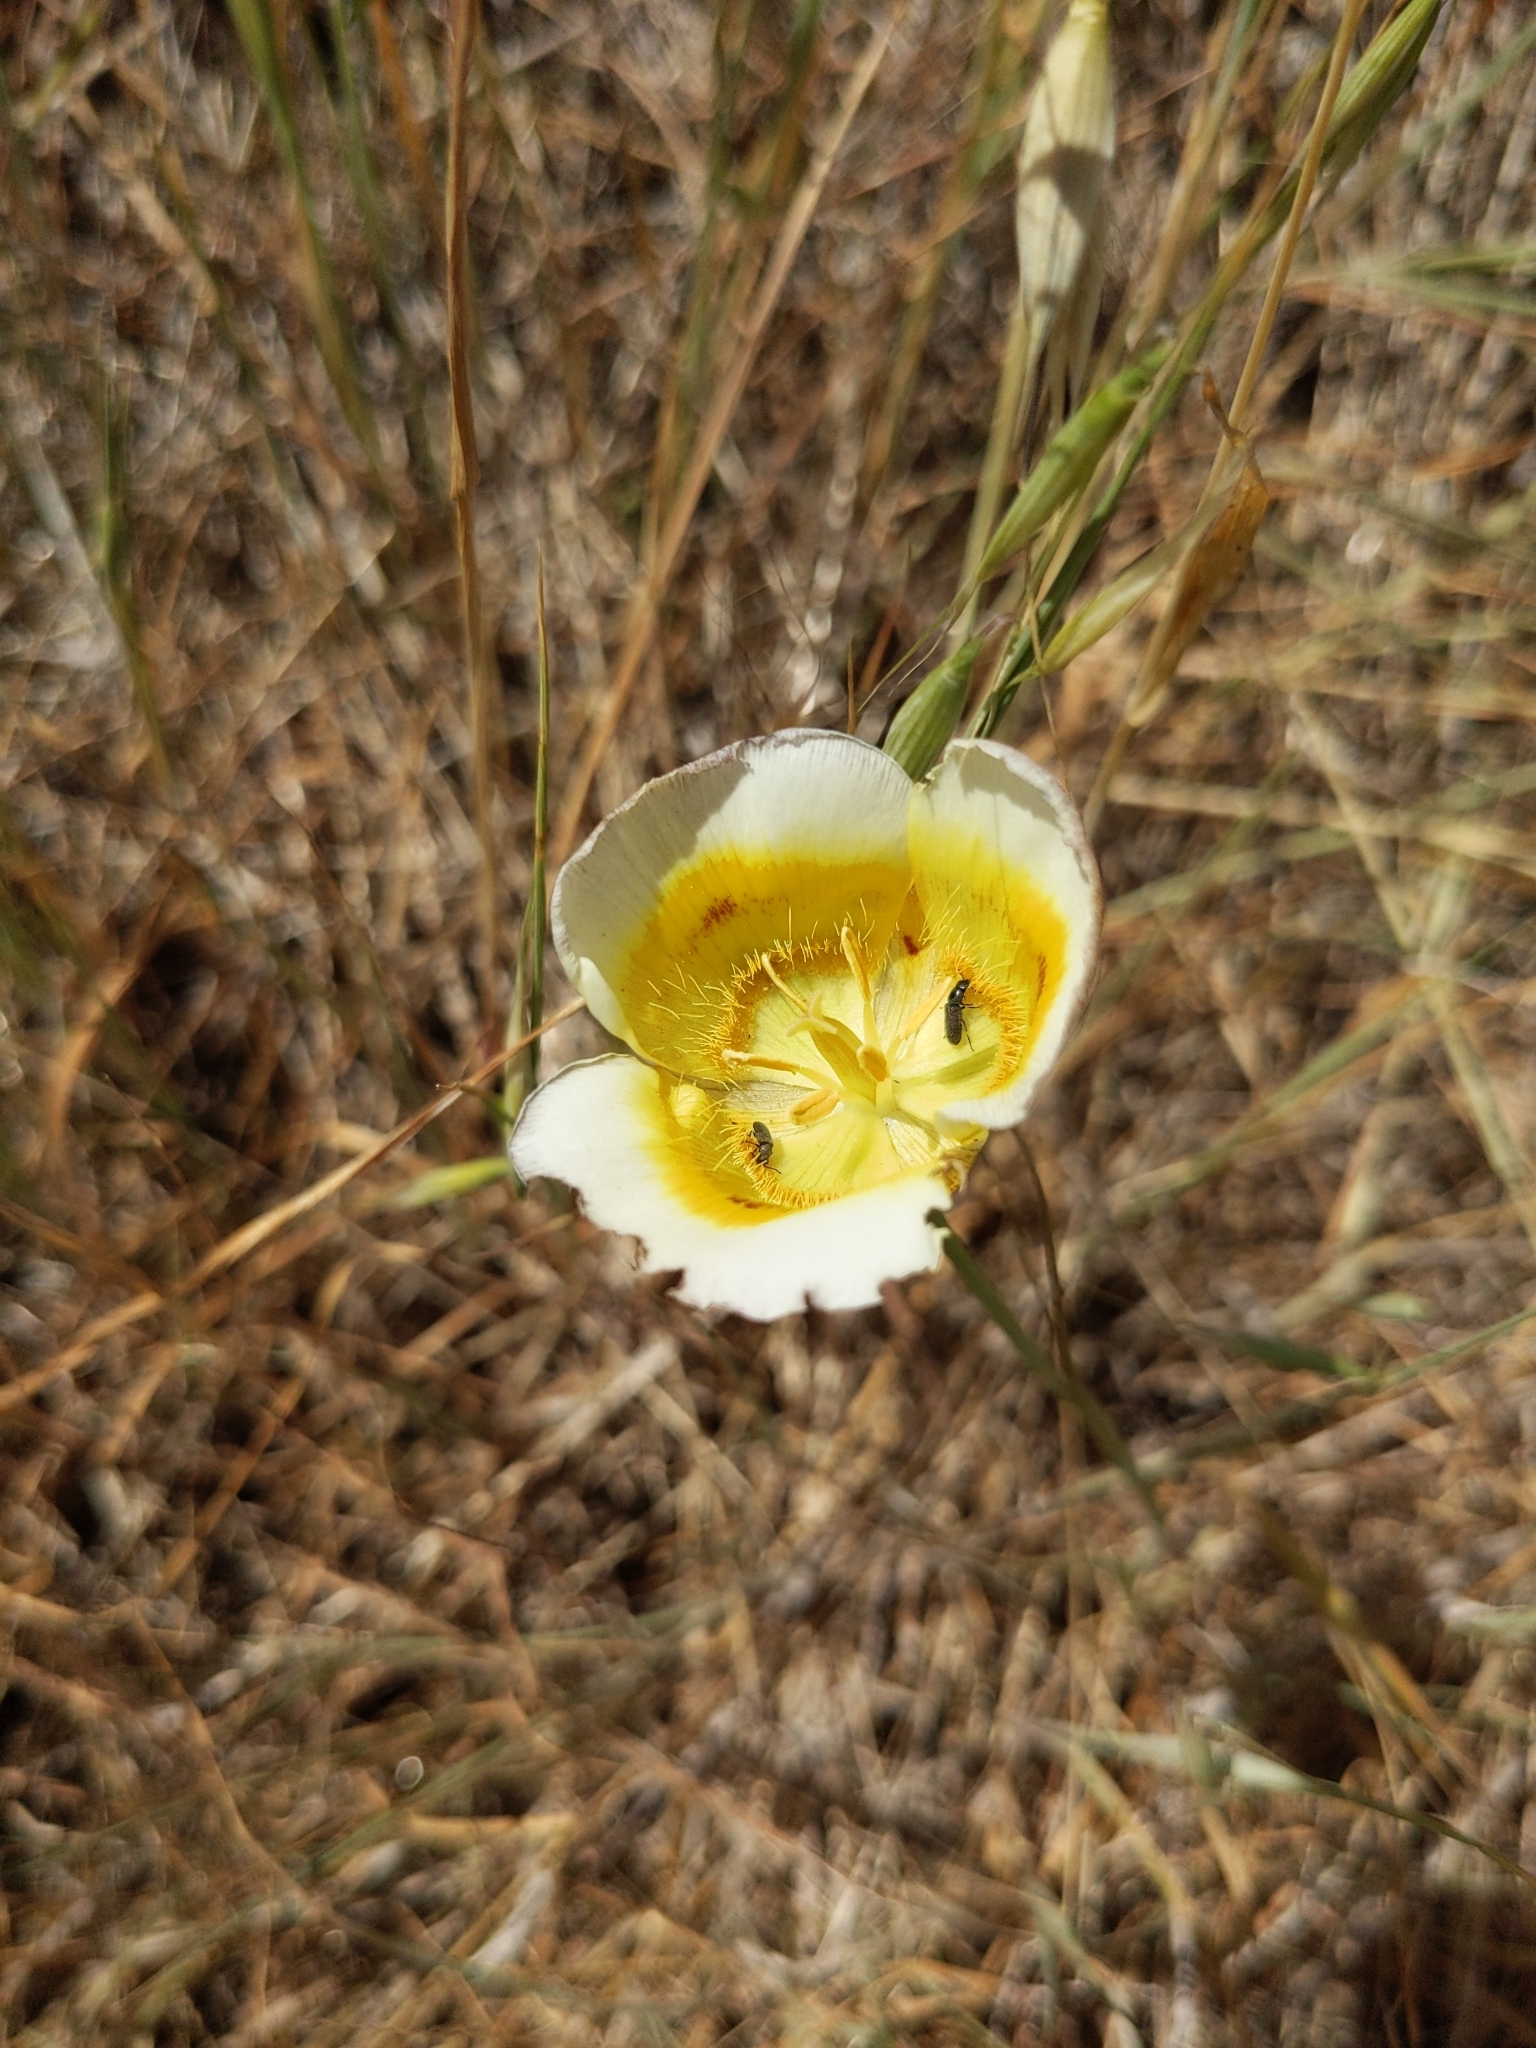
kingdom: Plantae
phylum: Tracheophyta
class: Liliopsida
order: Liliales
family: Liliaceae
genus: Calochortus
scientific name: Calochortus superbus
